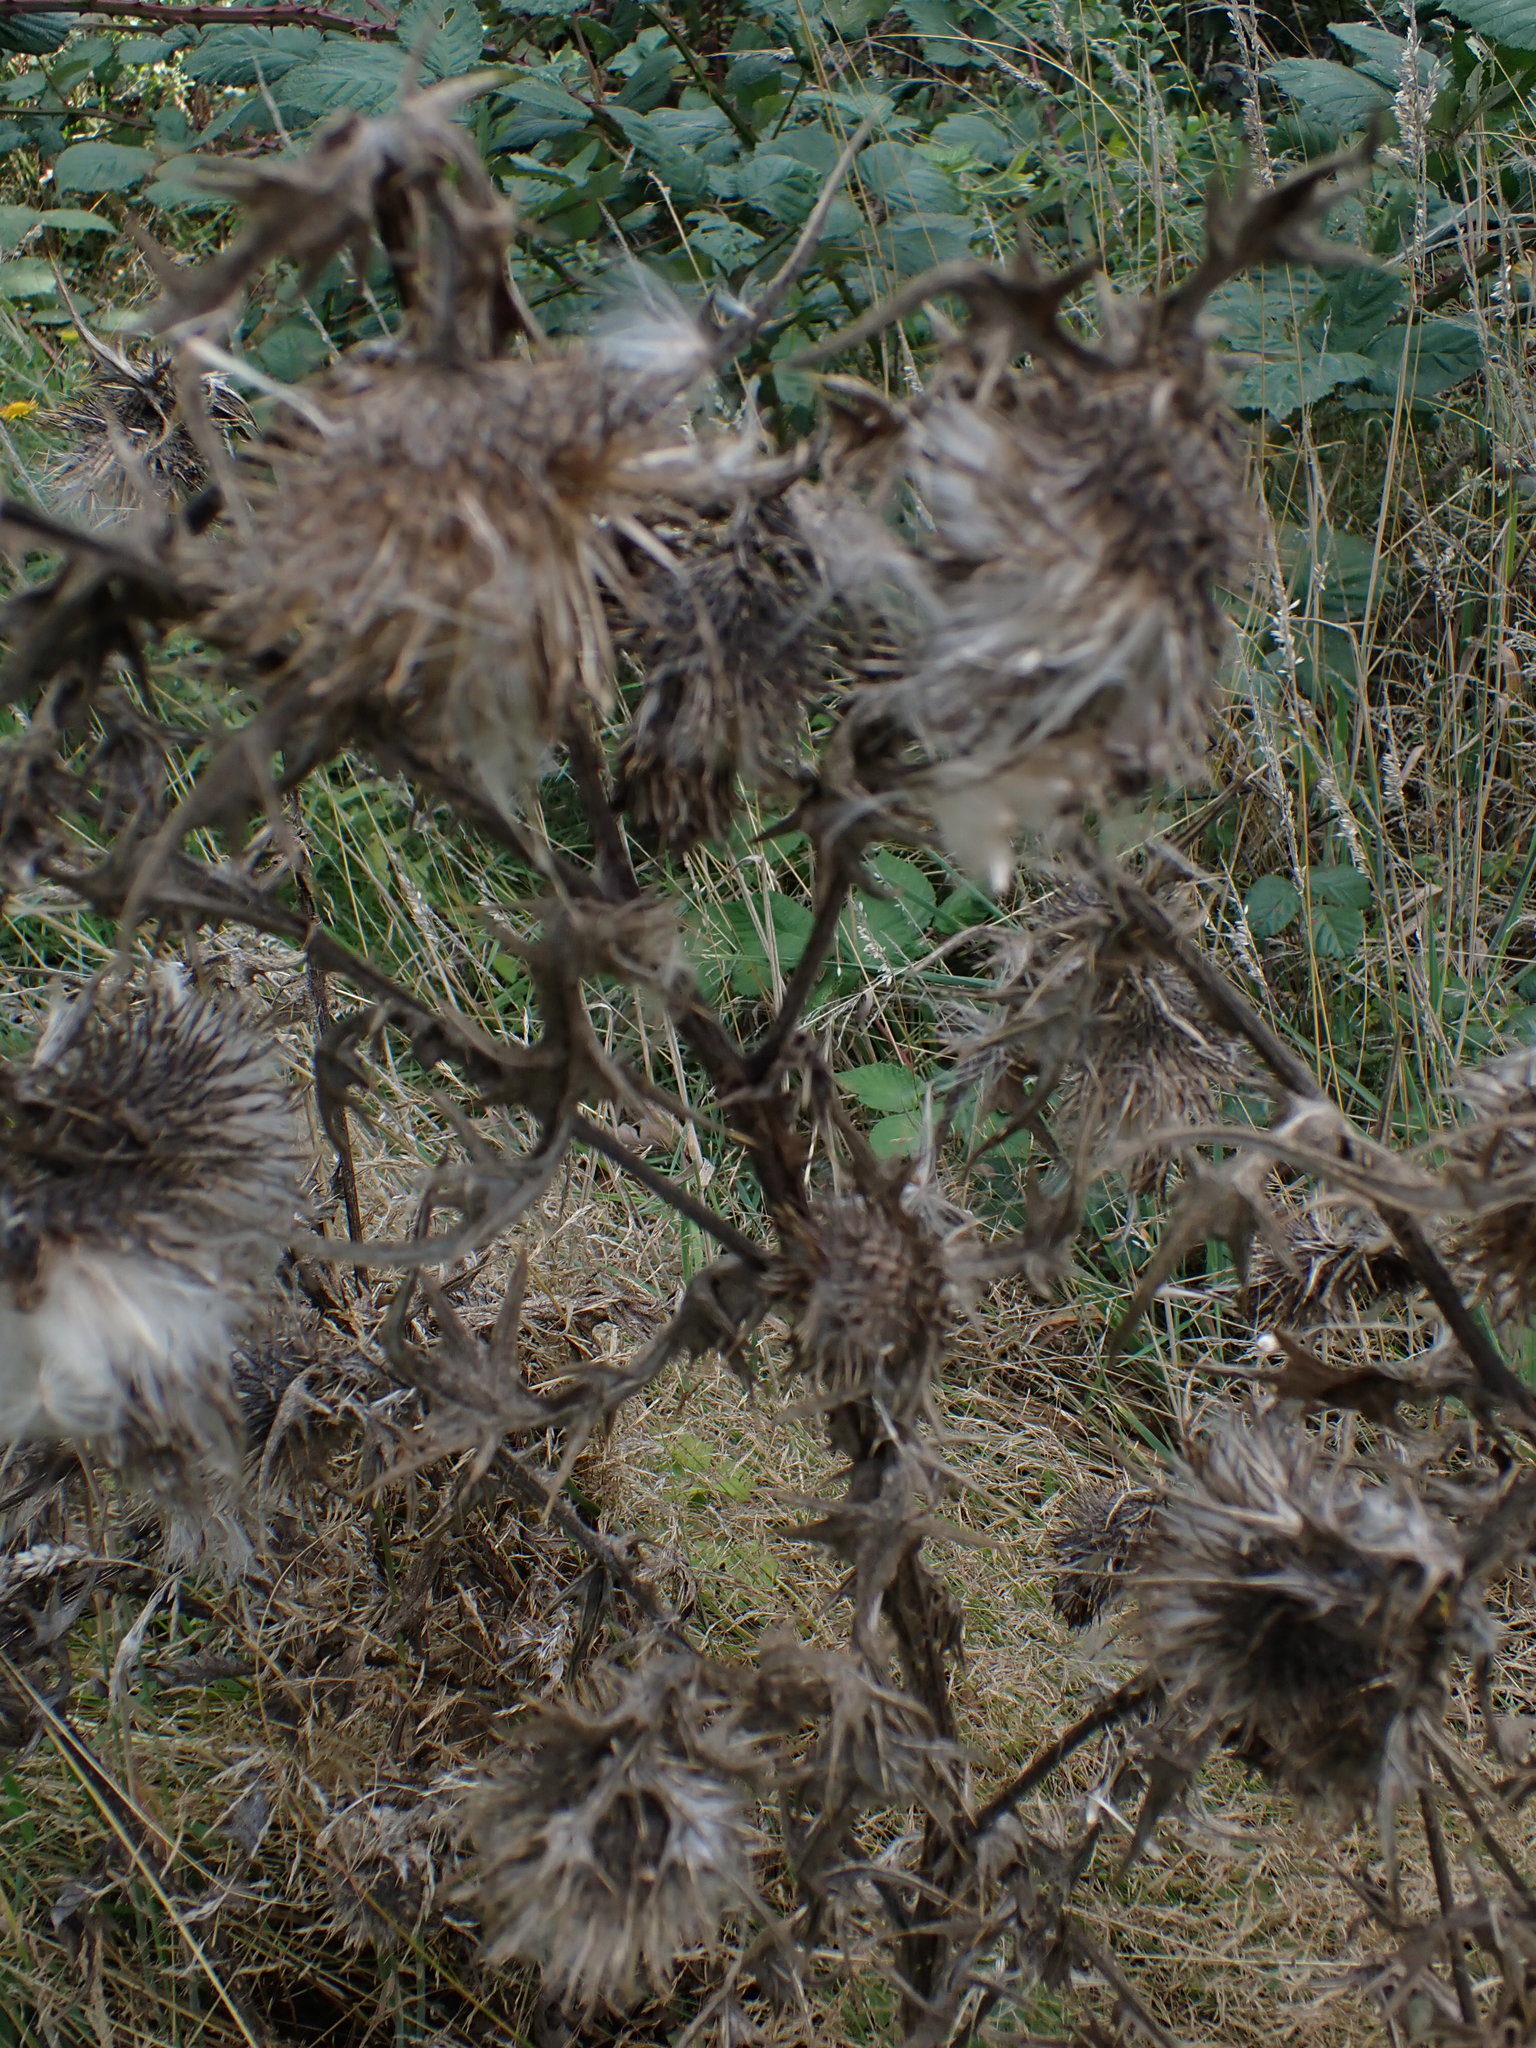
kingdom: Plantae
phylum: Tracheophyta
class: Magnoliopsida
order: Asterales
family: Asteraceae
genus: Cirsium
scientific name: Cirsium vulgare
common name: Bull thistle
